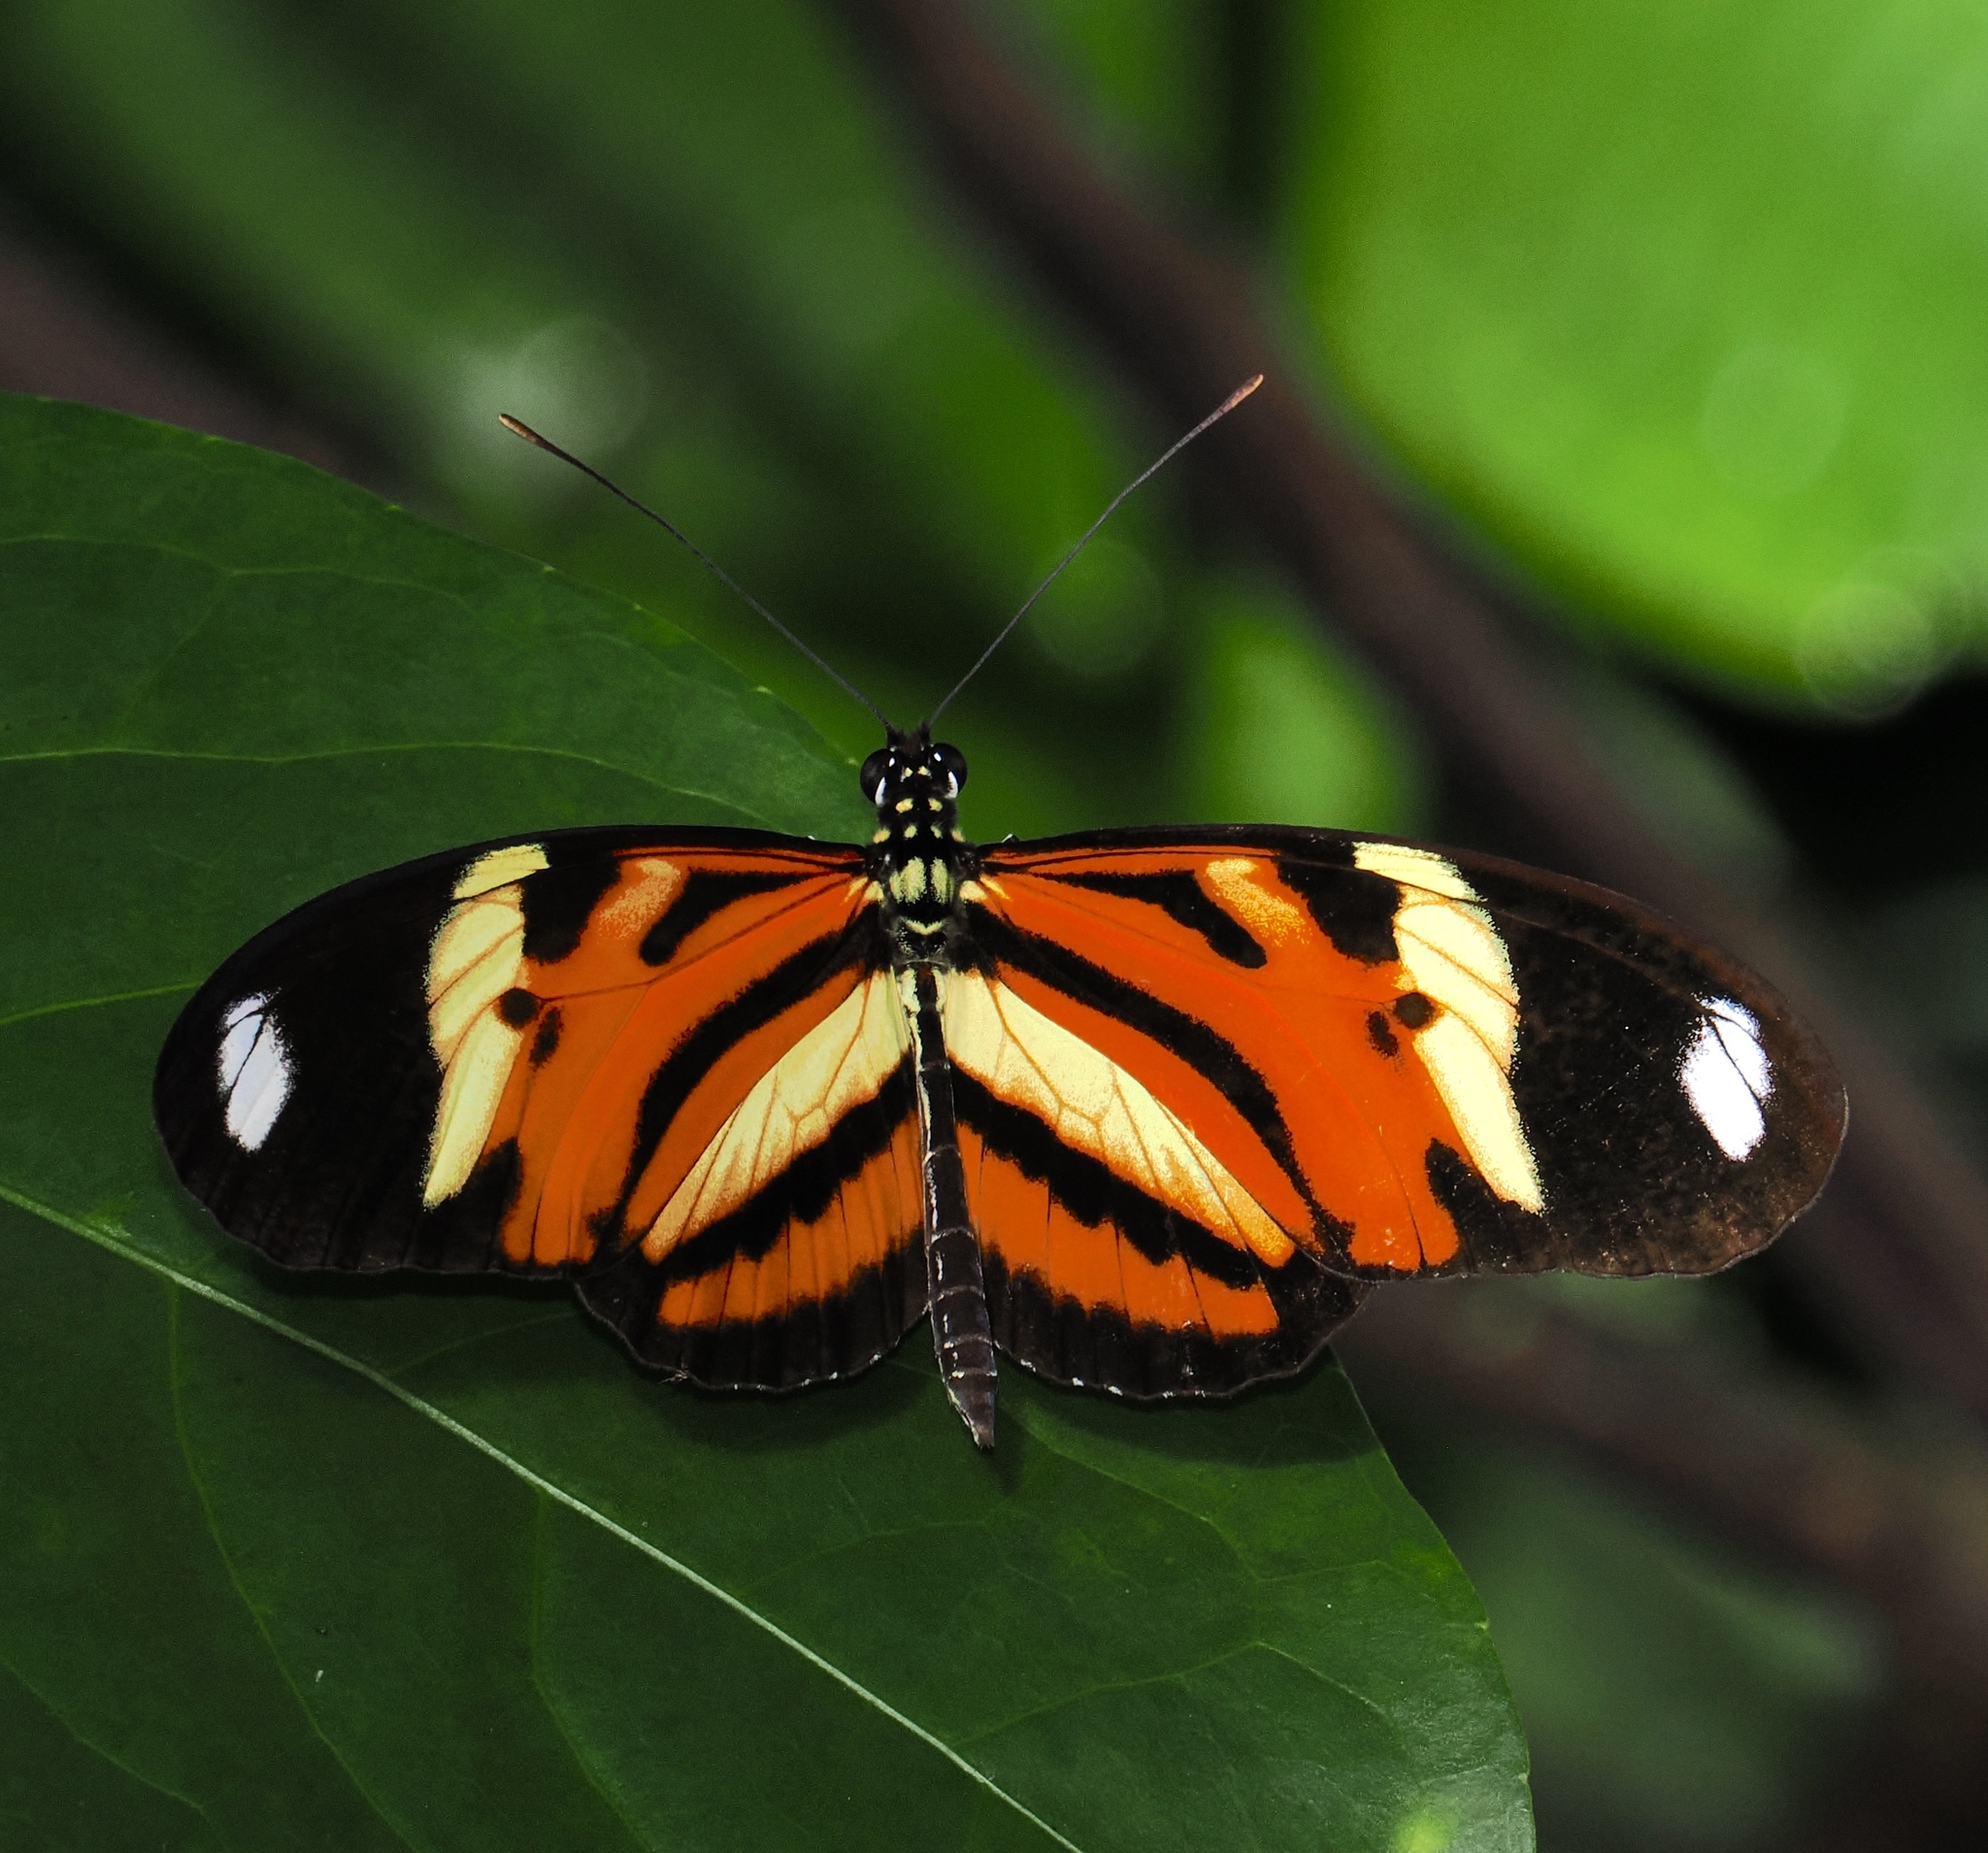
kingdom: Animalia
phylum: Arthropoda
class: Insecta
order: Lepidoptera
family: Nymphalidae
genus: Heliconius
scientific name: Heliconius ethilla
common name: Ethilia longwing
